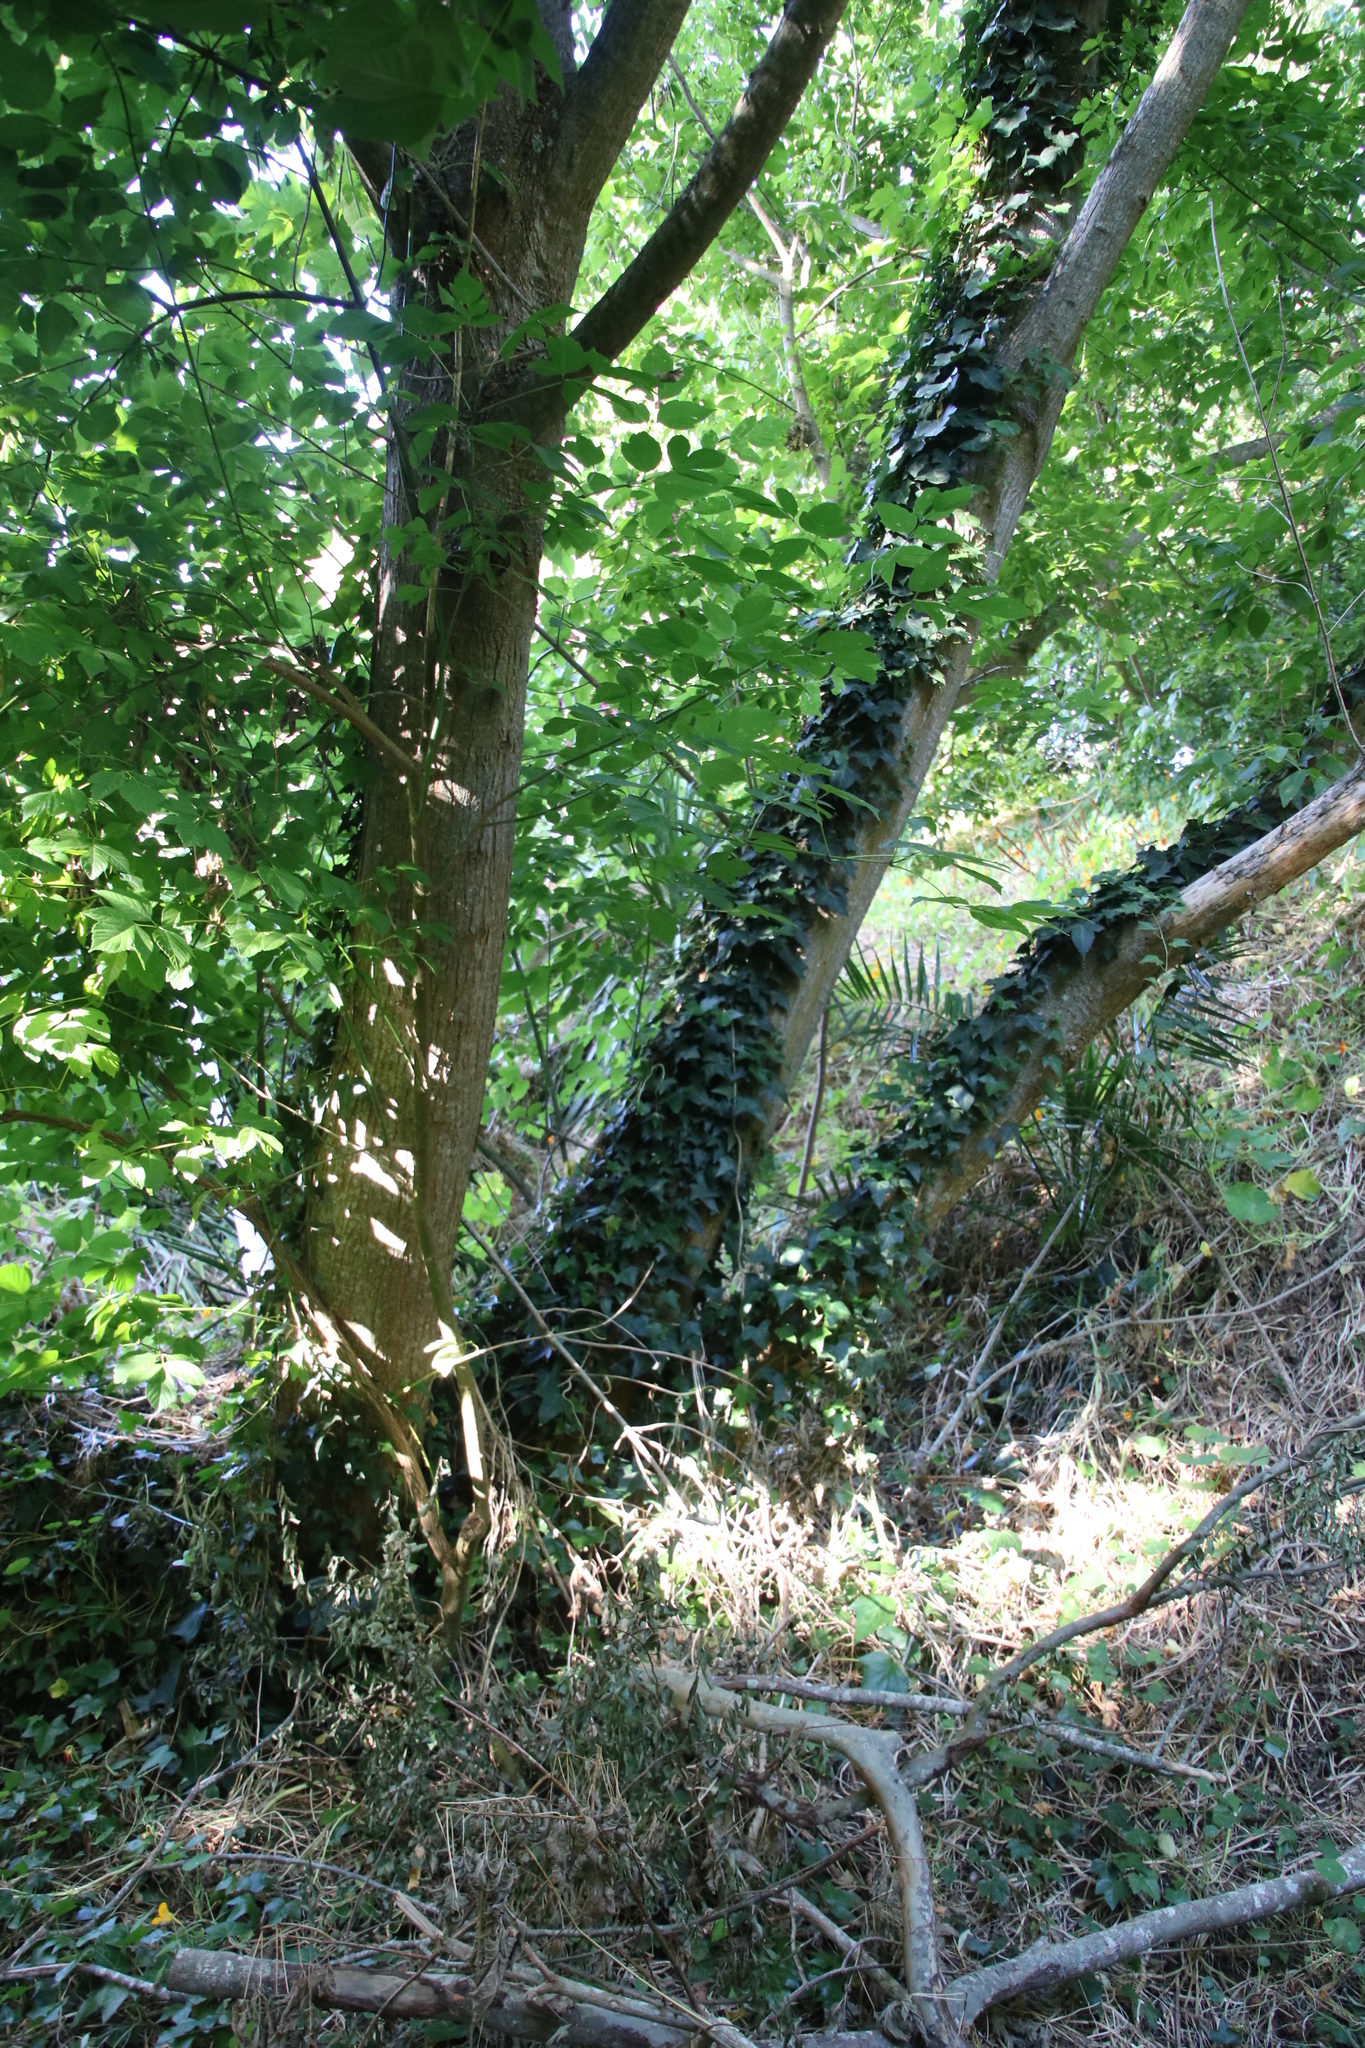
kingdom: Plantae
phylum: Tracheophyta
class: Magnoliopsida
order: Apiales
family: Araliaceae
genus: Hedera
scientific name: Hedera helix
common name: Ivy
